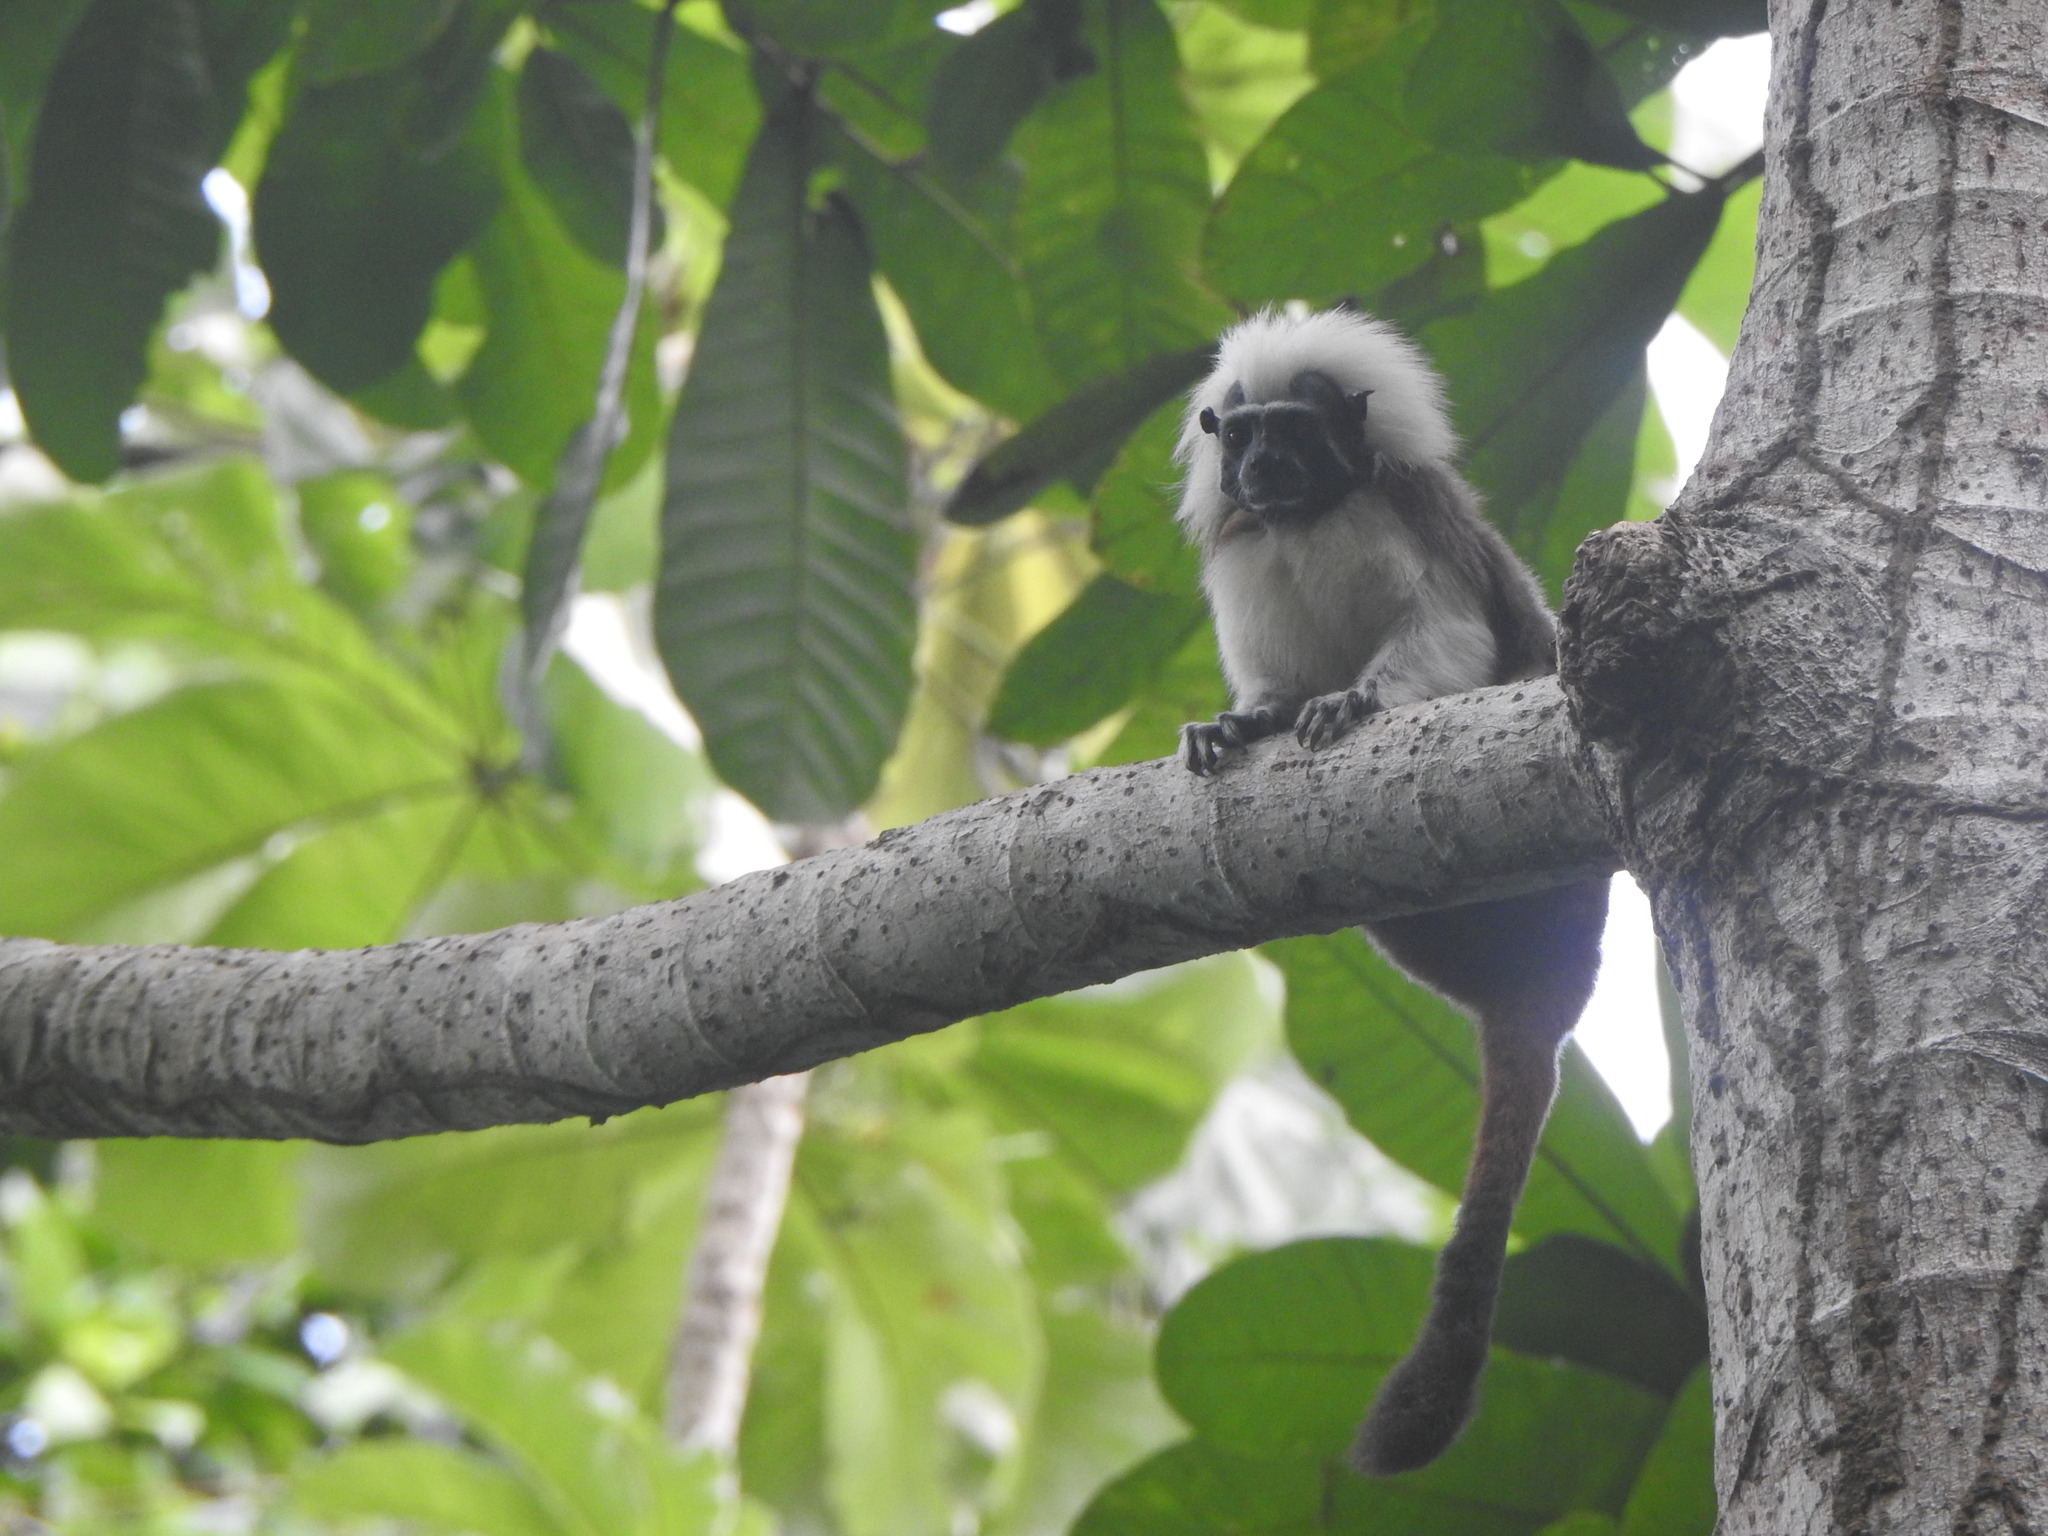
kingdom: Animalia
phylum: Chordata
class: Mammalia
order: Primates
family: Callitrichidae
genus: Saguinus
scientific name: Saguinus oedipus
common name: Cottontop tamarin
